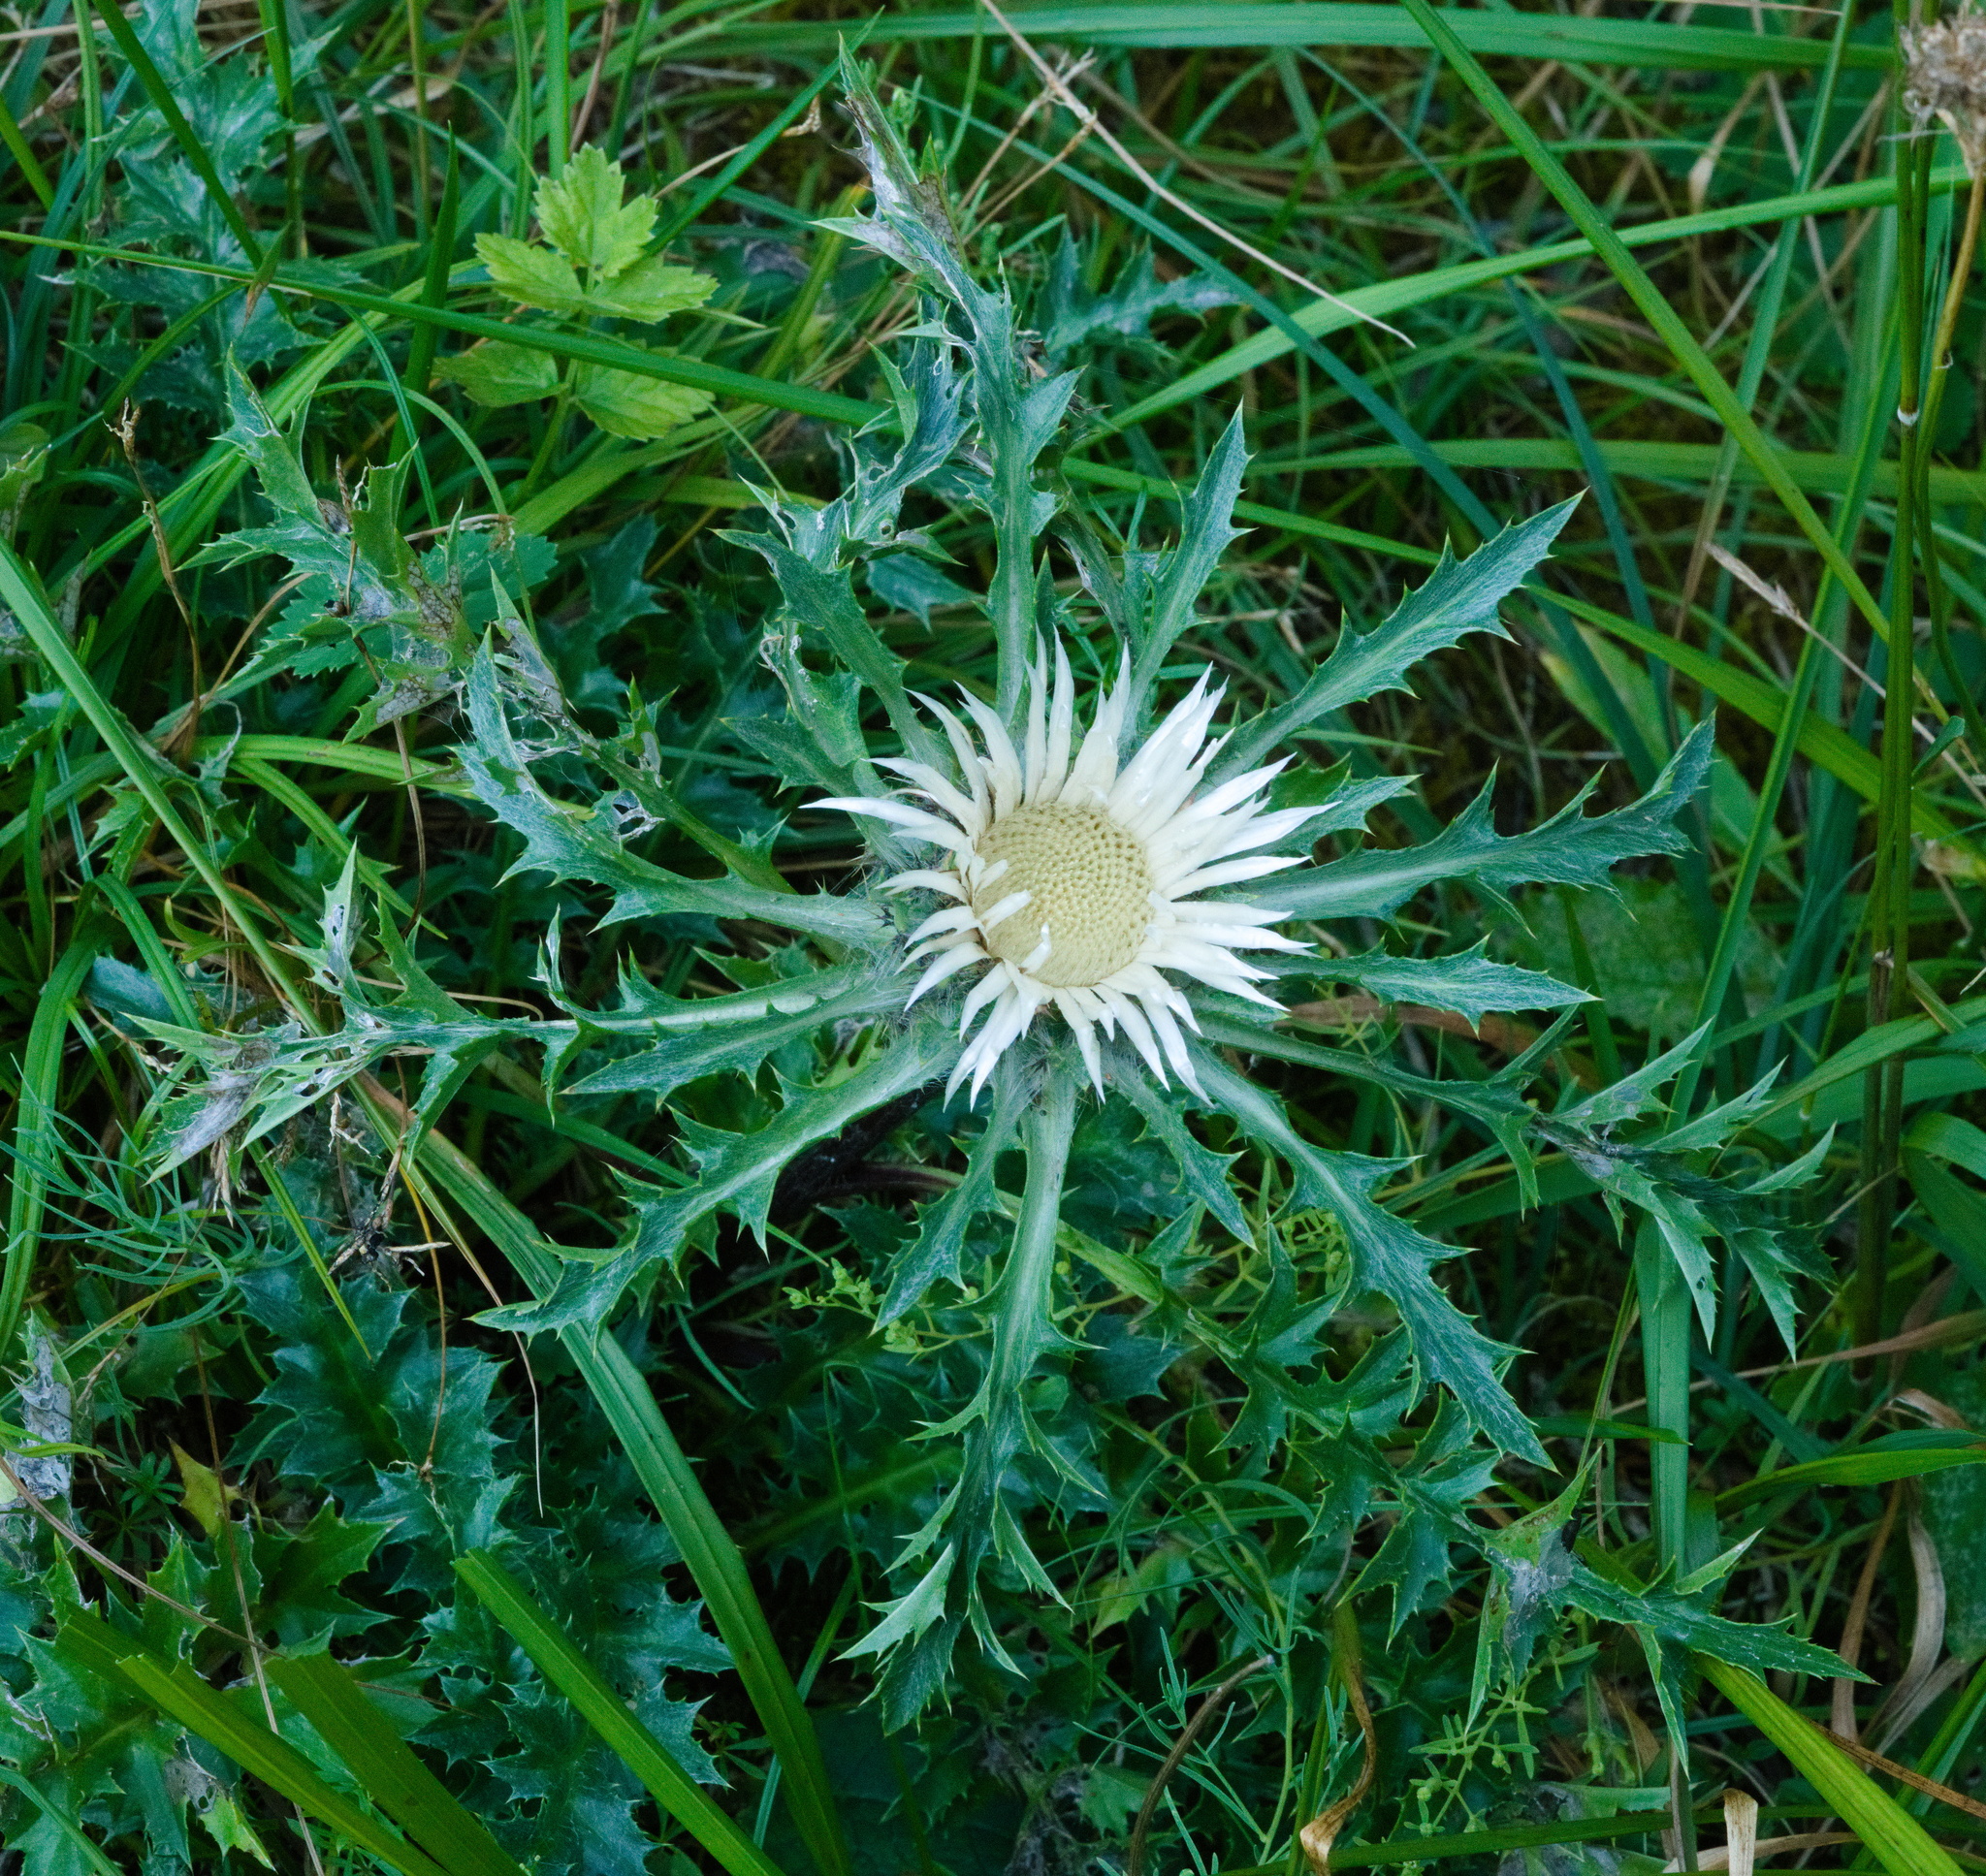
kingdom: Plantae
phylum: Tracheophyta
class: Magnoliopsida
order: Asterales
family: Asteraceae
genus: Carlina
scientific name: Carlina acaulis
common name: Stemless carline thistle
